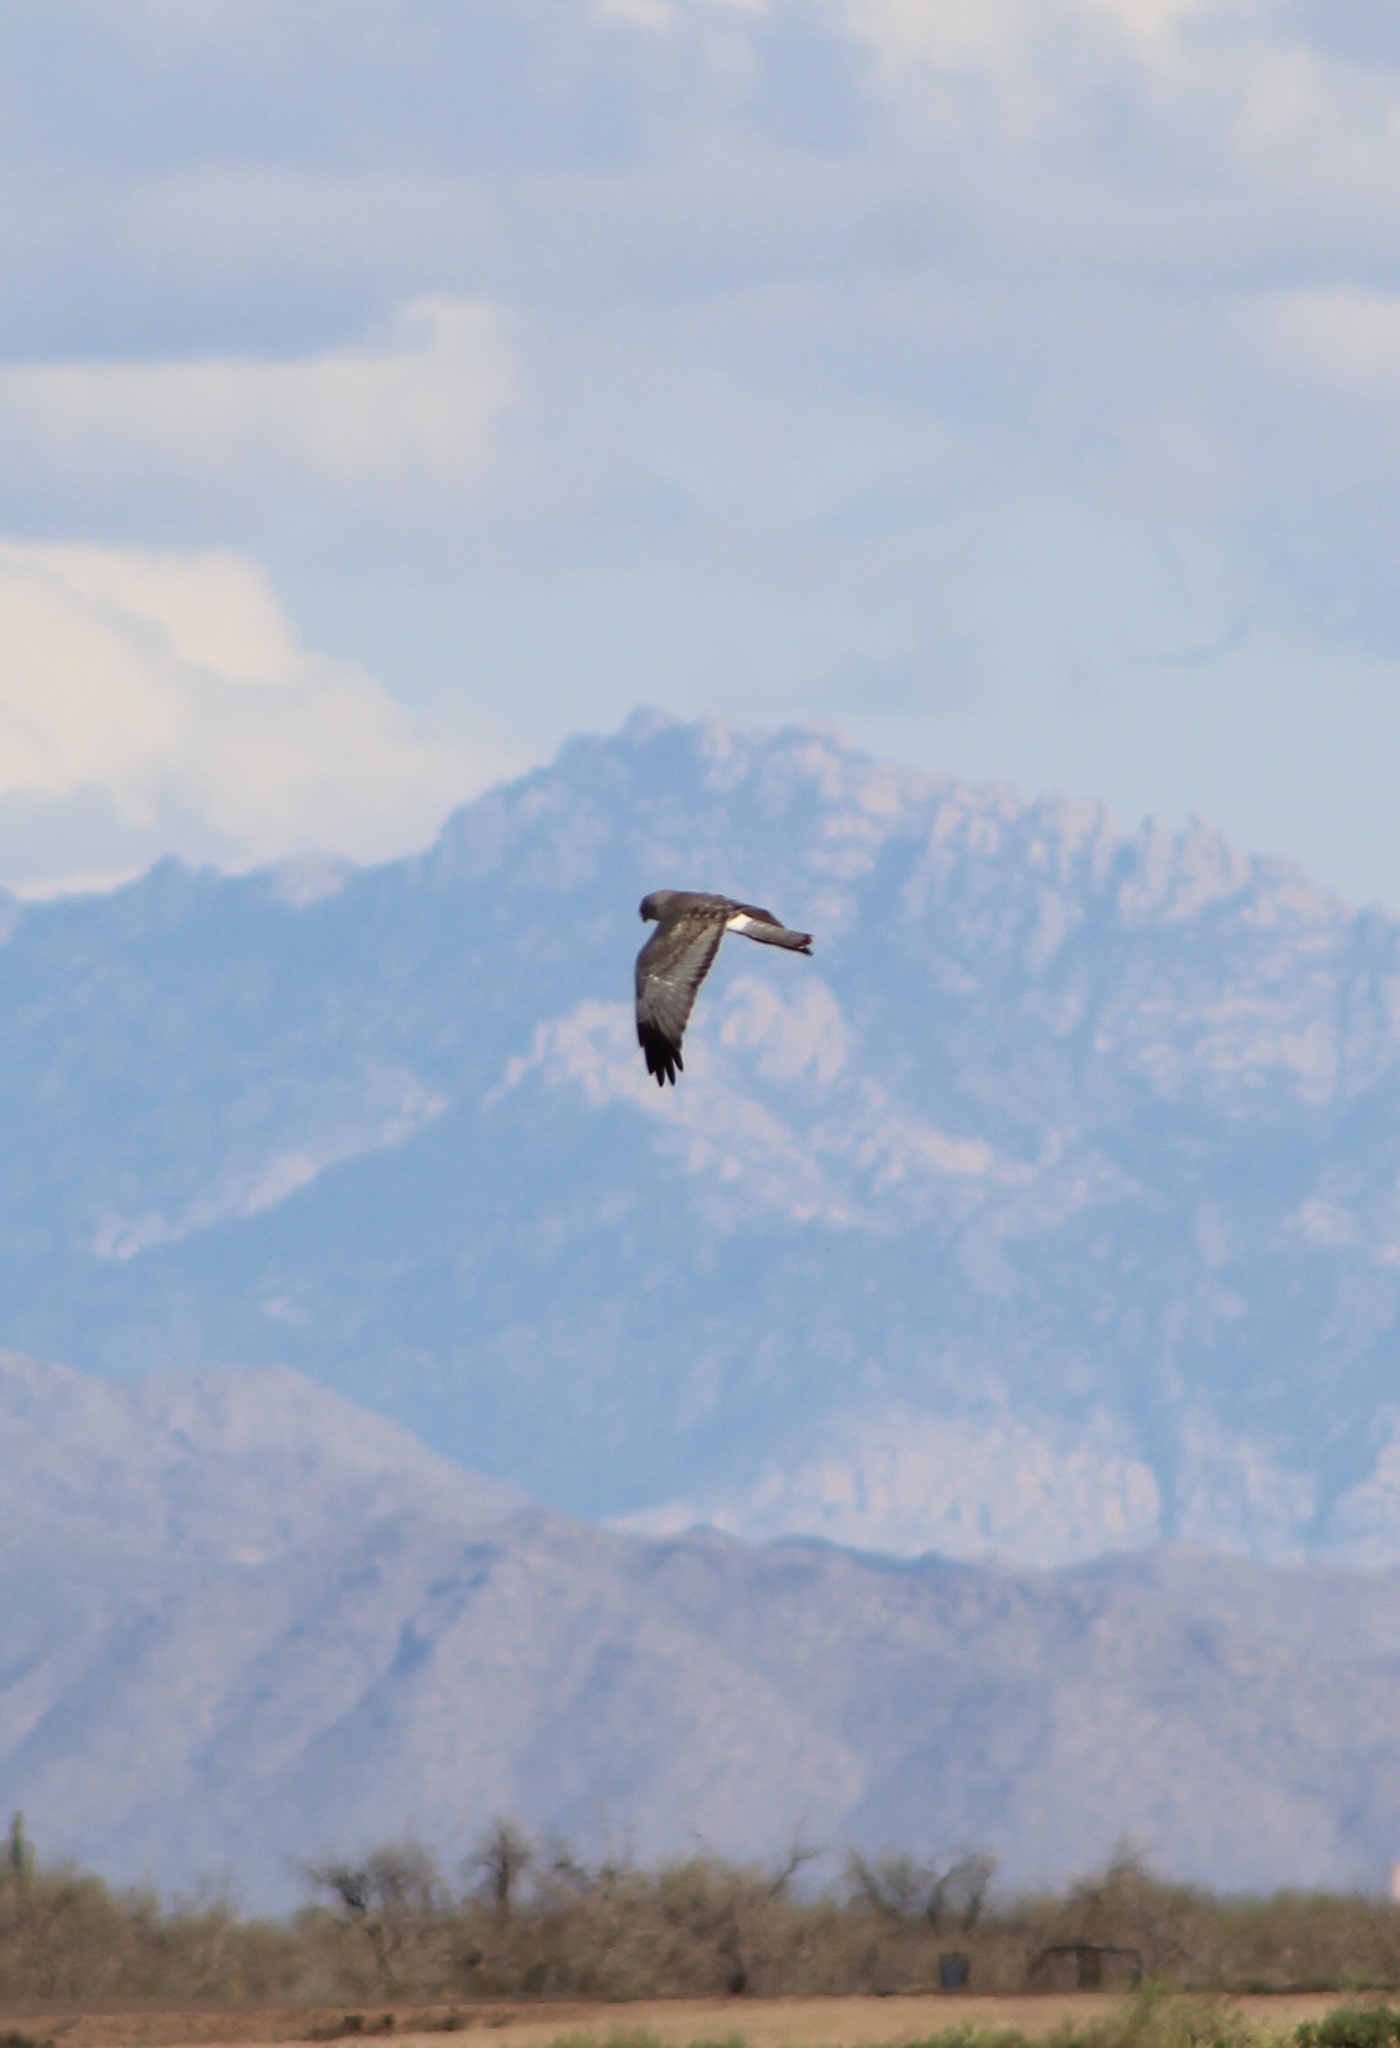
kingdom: Animalia
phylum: Chordata
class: Aves
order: Accipitriformes
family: Accipitridae
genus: Circus
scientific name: Circus cyaneus
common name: Hen harrier
